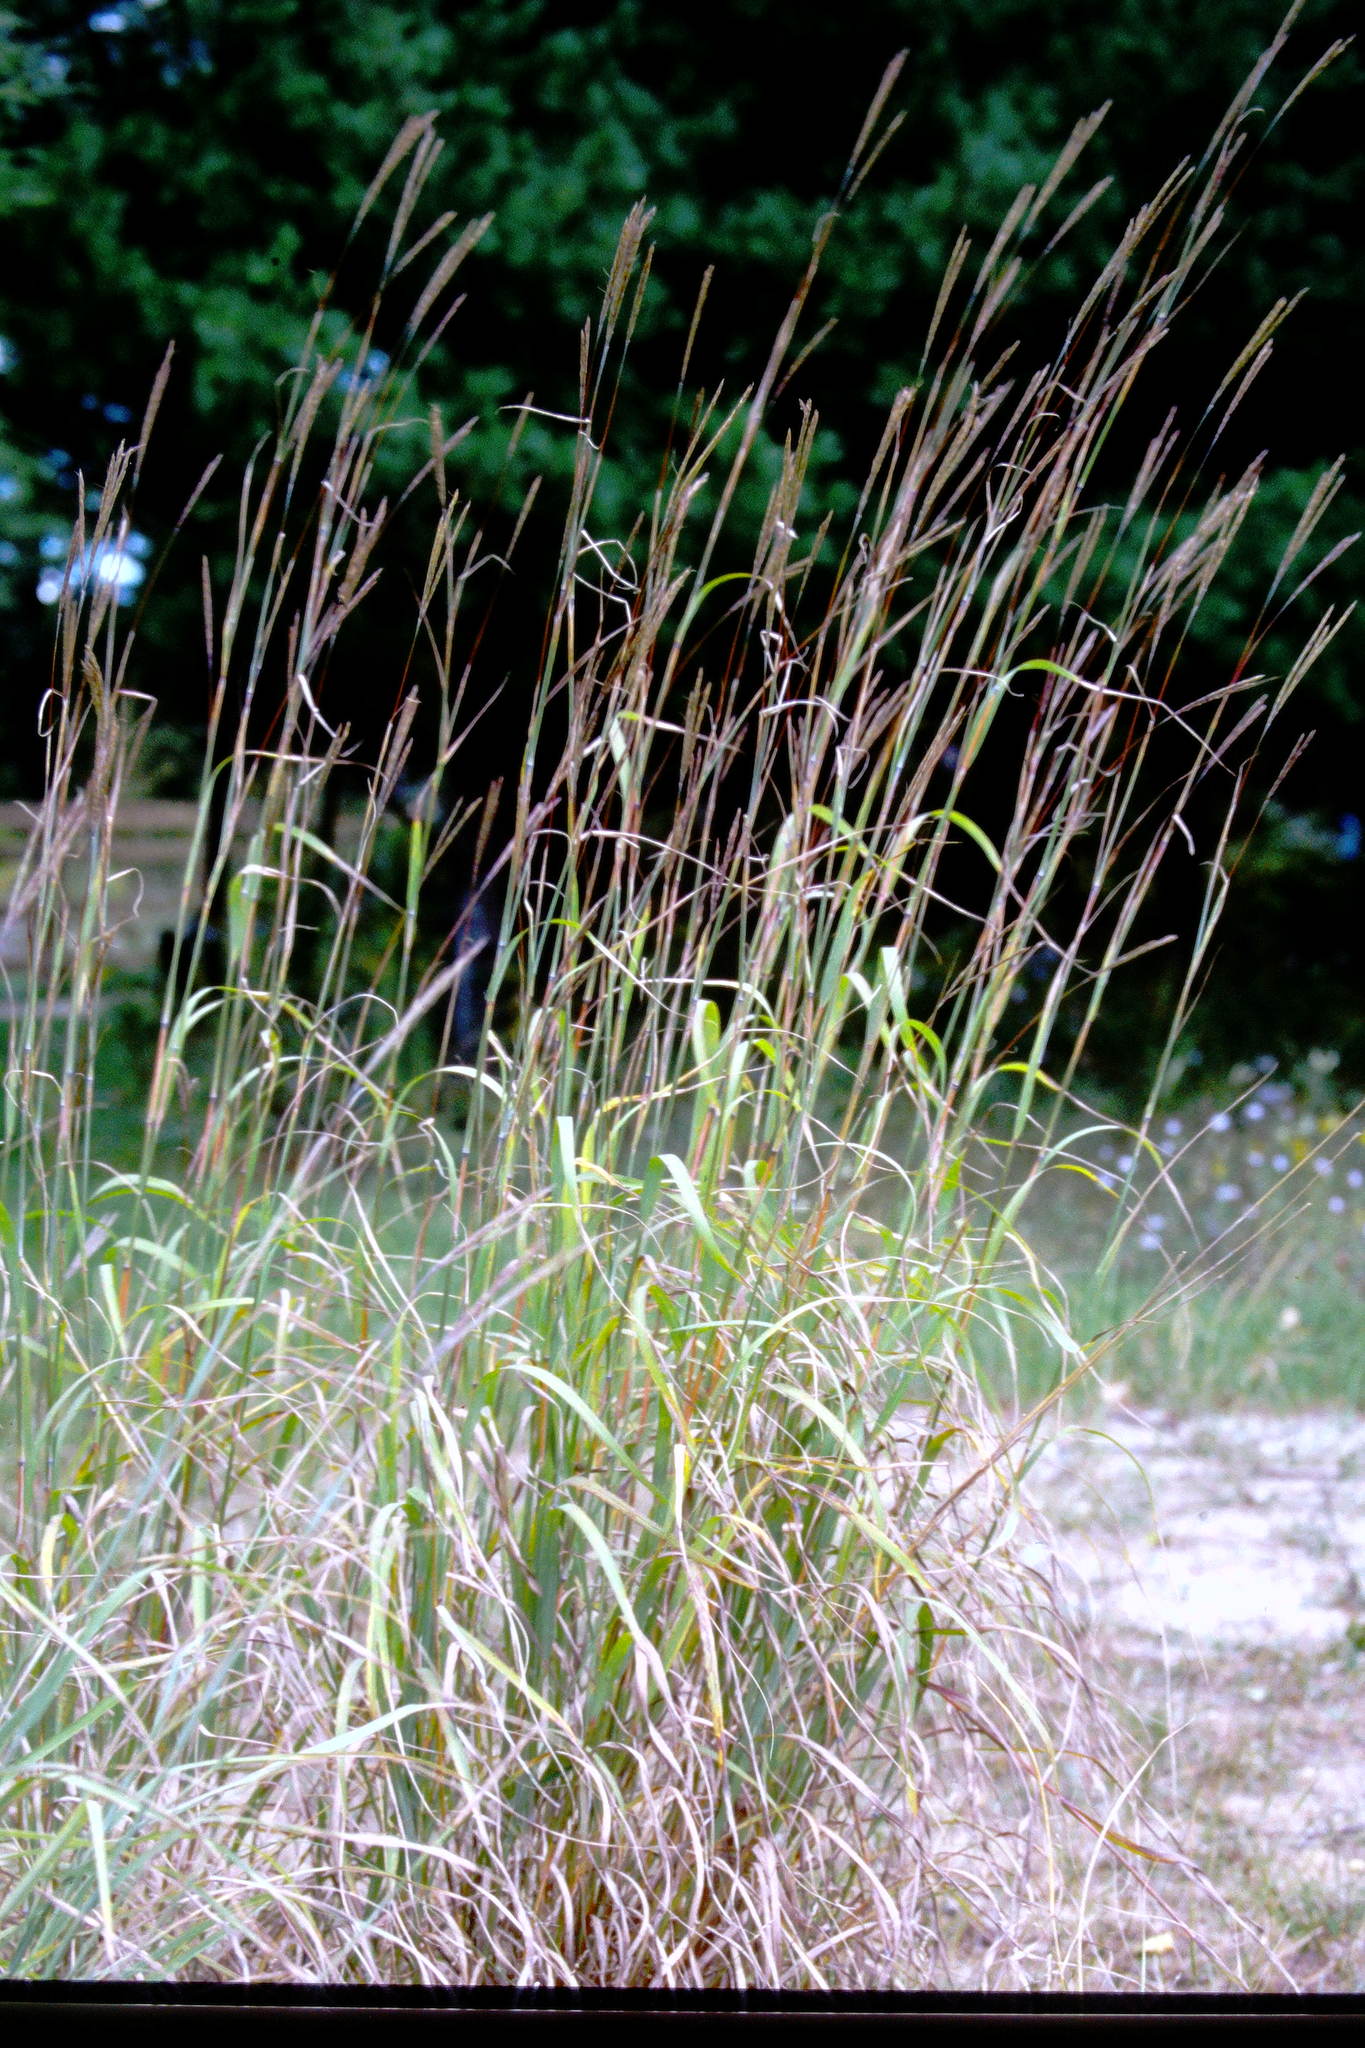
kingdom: Plantae
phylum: Tracheophyta
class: Liliopsida
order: Poales
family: Poaceae
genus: Andropogon
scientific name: Andropogon gerardi
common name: Big bluestem
